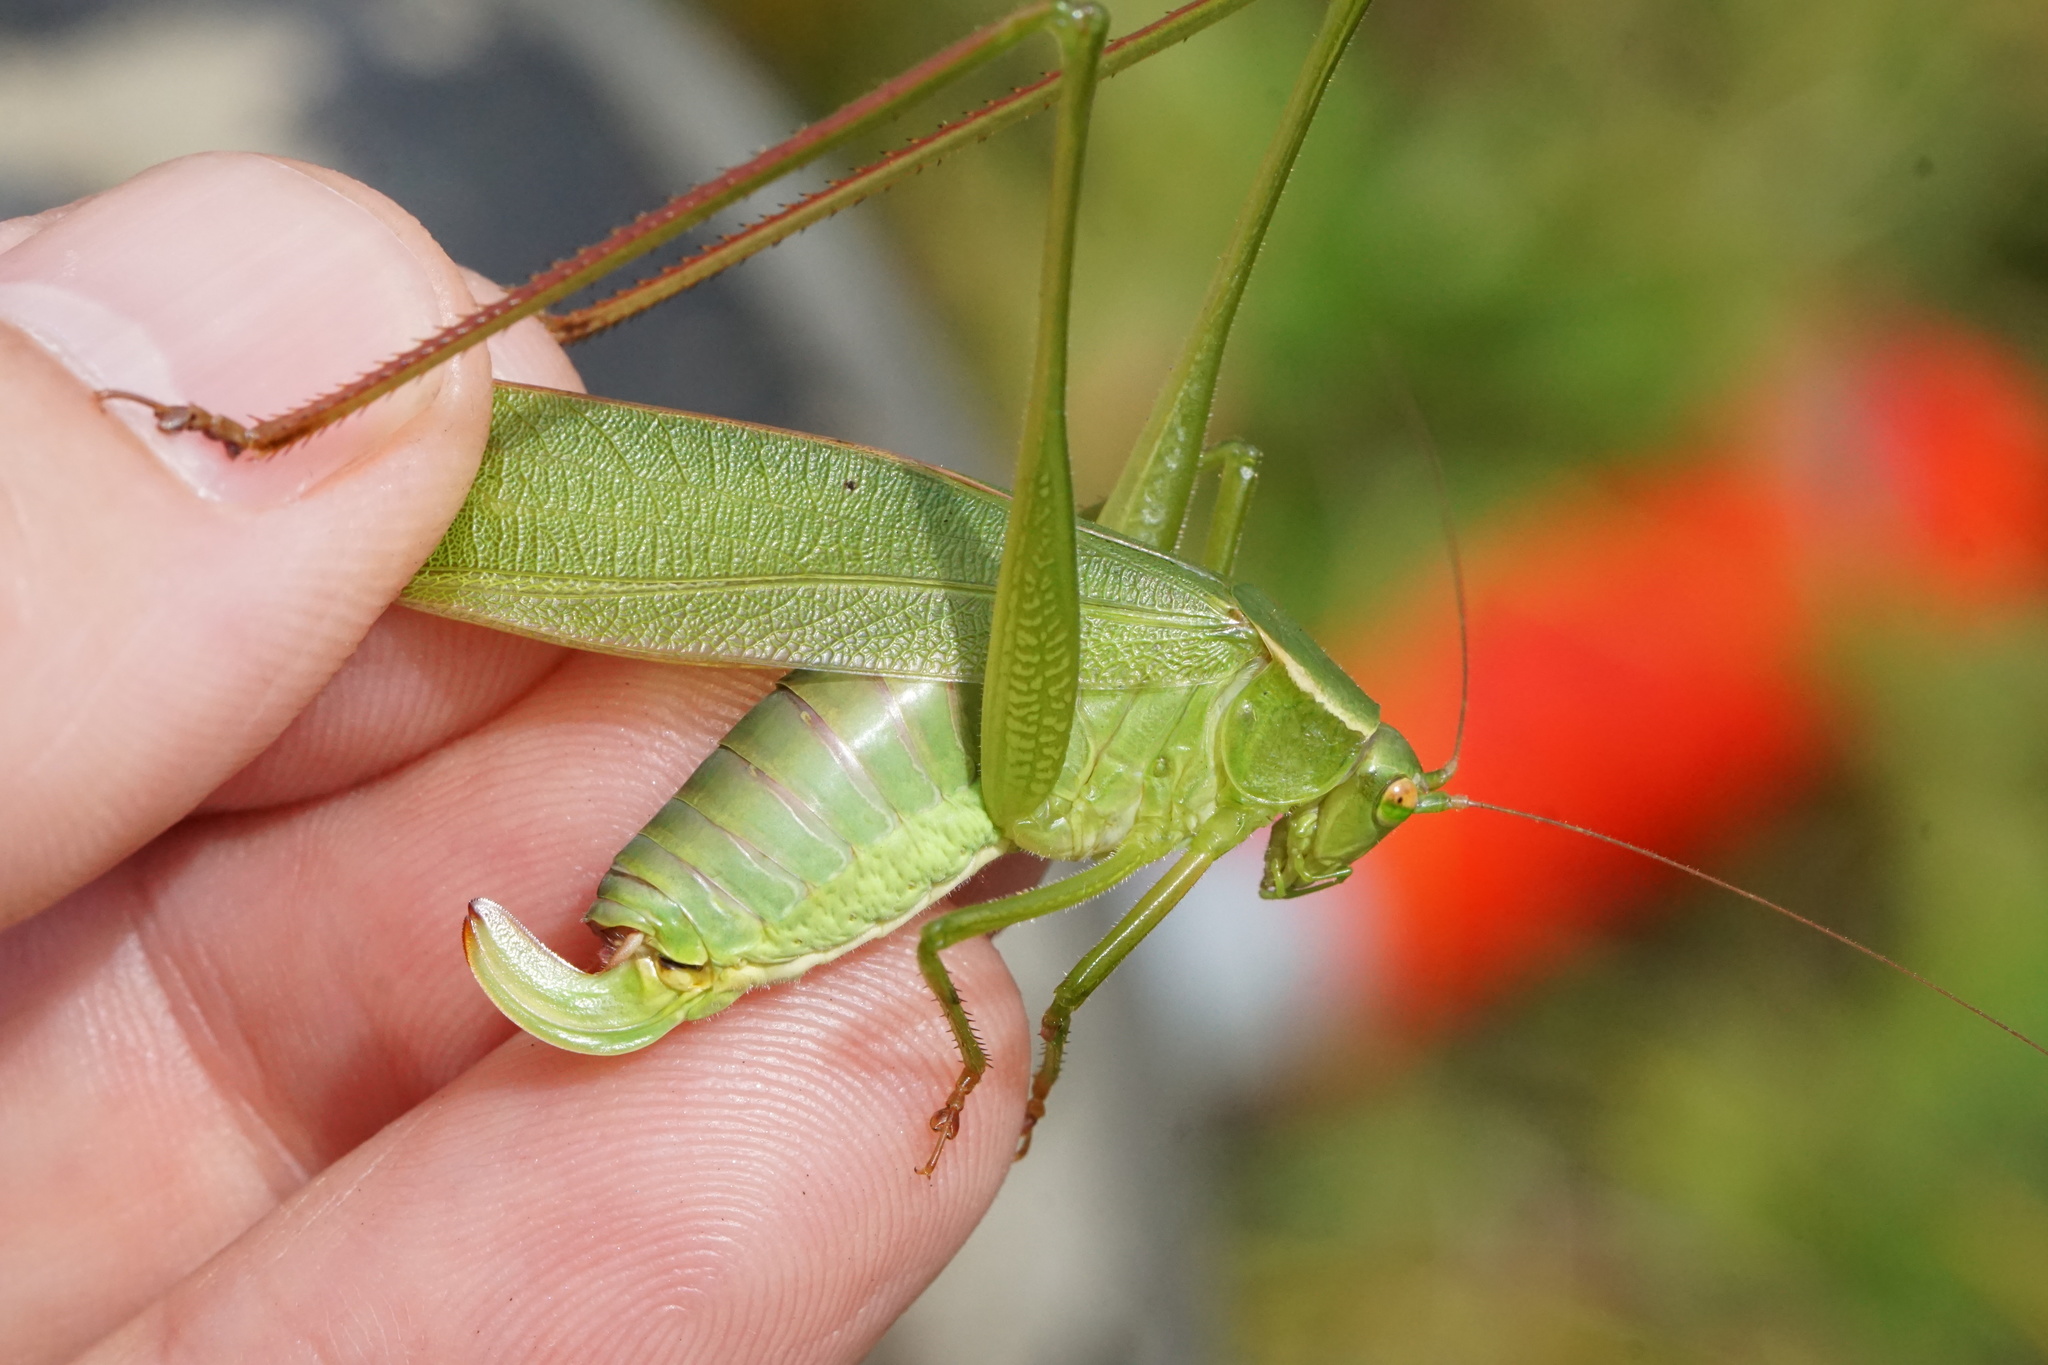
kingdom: Animalia
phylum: Arthropoda
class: Insecta
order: Orthoptera
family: Tettigoniidae
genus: Scudderia
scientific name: Scudderia curvicauda
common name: Curve-tailed bush katydid
